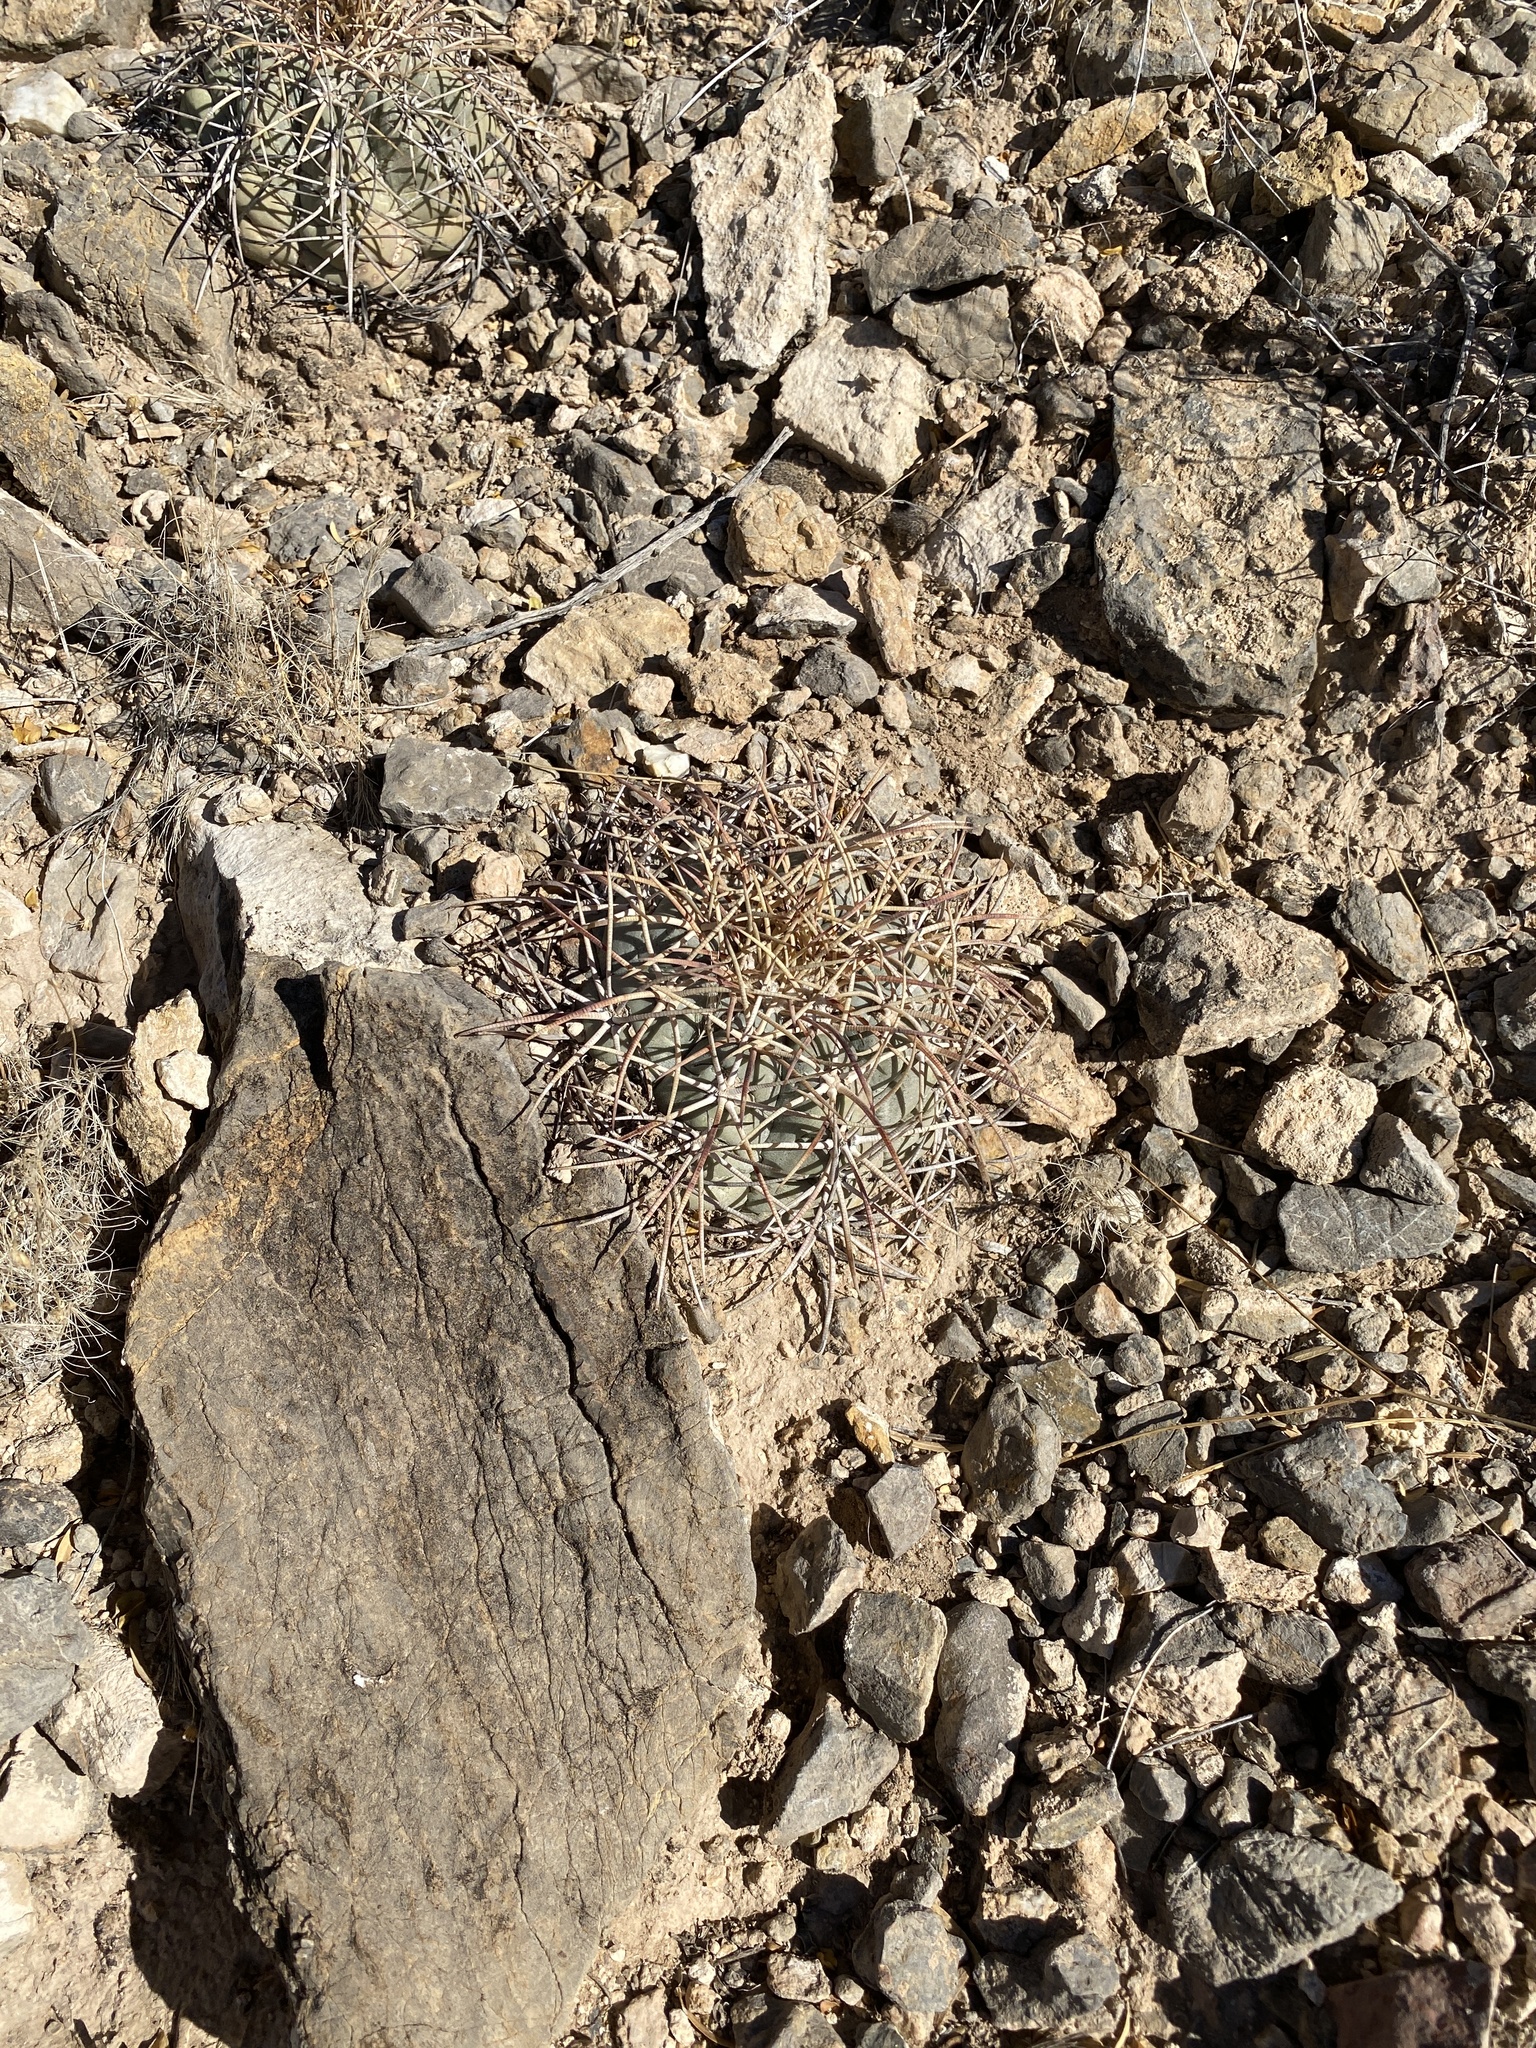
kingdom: Plantae
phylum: Tracheophyta
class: Magnoliopsida
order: Caryophyllales
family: Cactaceae
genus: Echinocactus
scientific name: Echinocactus horizonthalonius
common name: Devilshead
